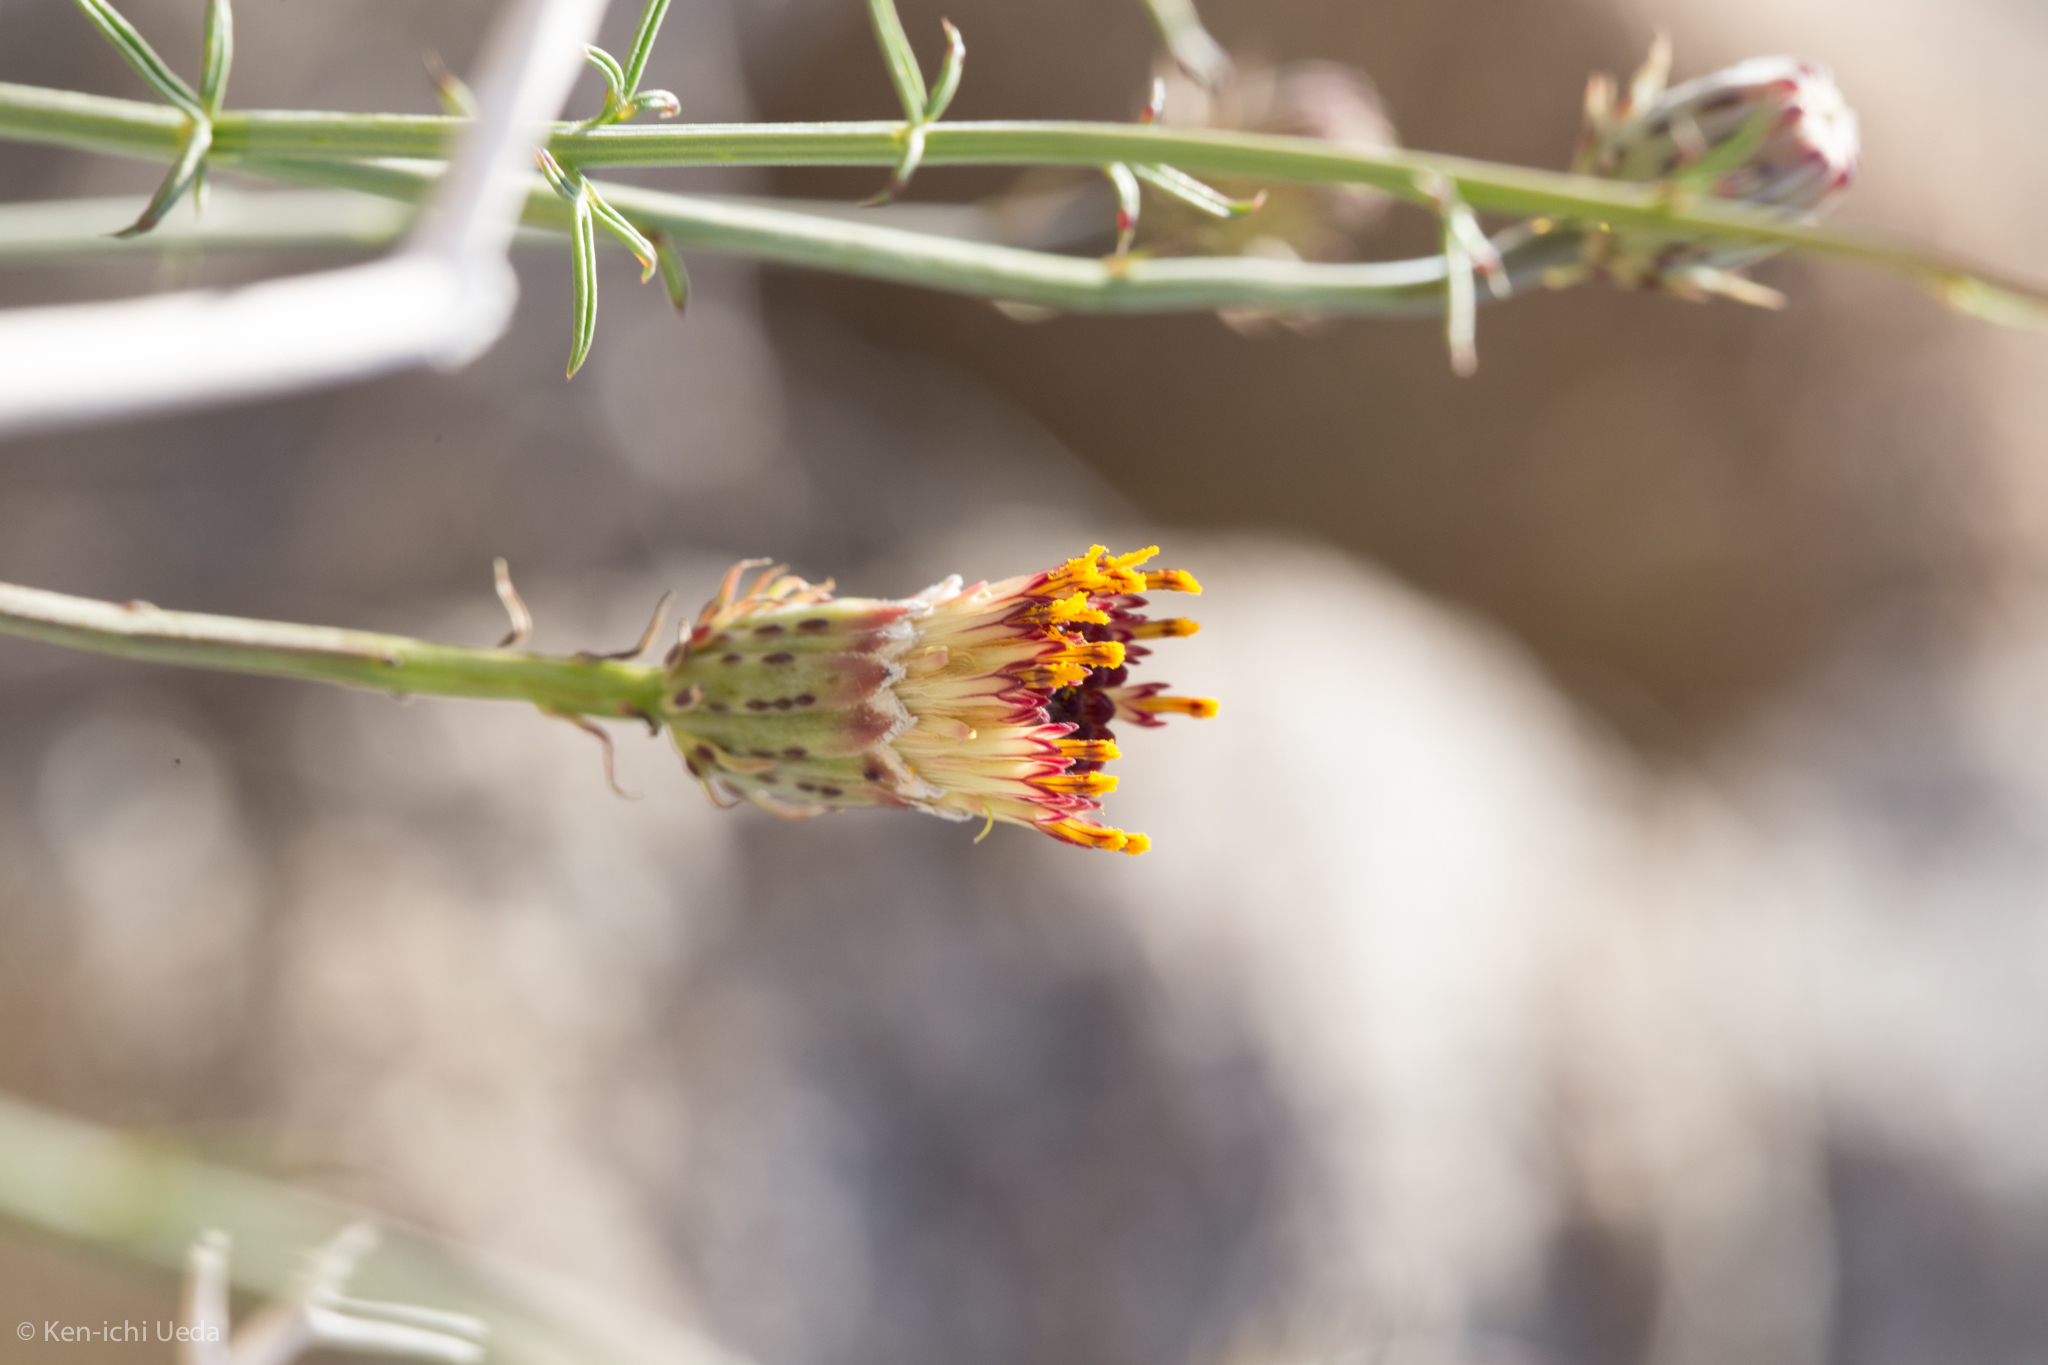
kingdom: Plantae
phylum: Tracheophyta
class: Magnoliopsida
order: Asterales
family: Asteraceae
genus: Adenophyllum
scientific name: Adenophyllum porophylloides
